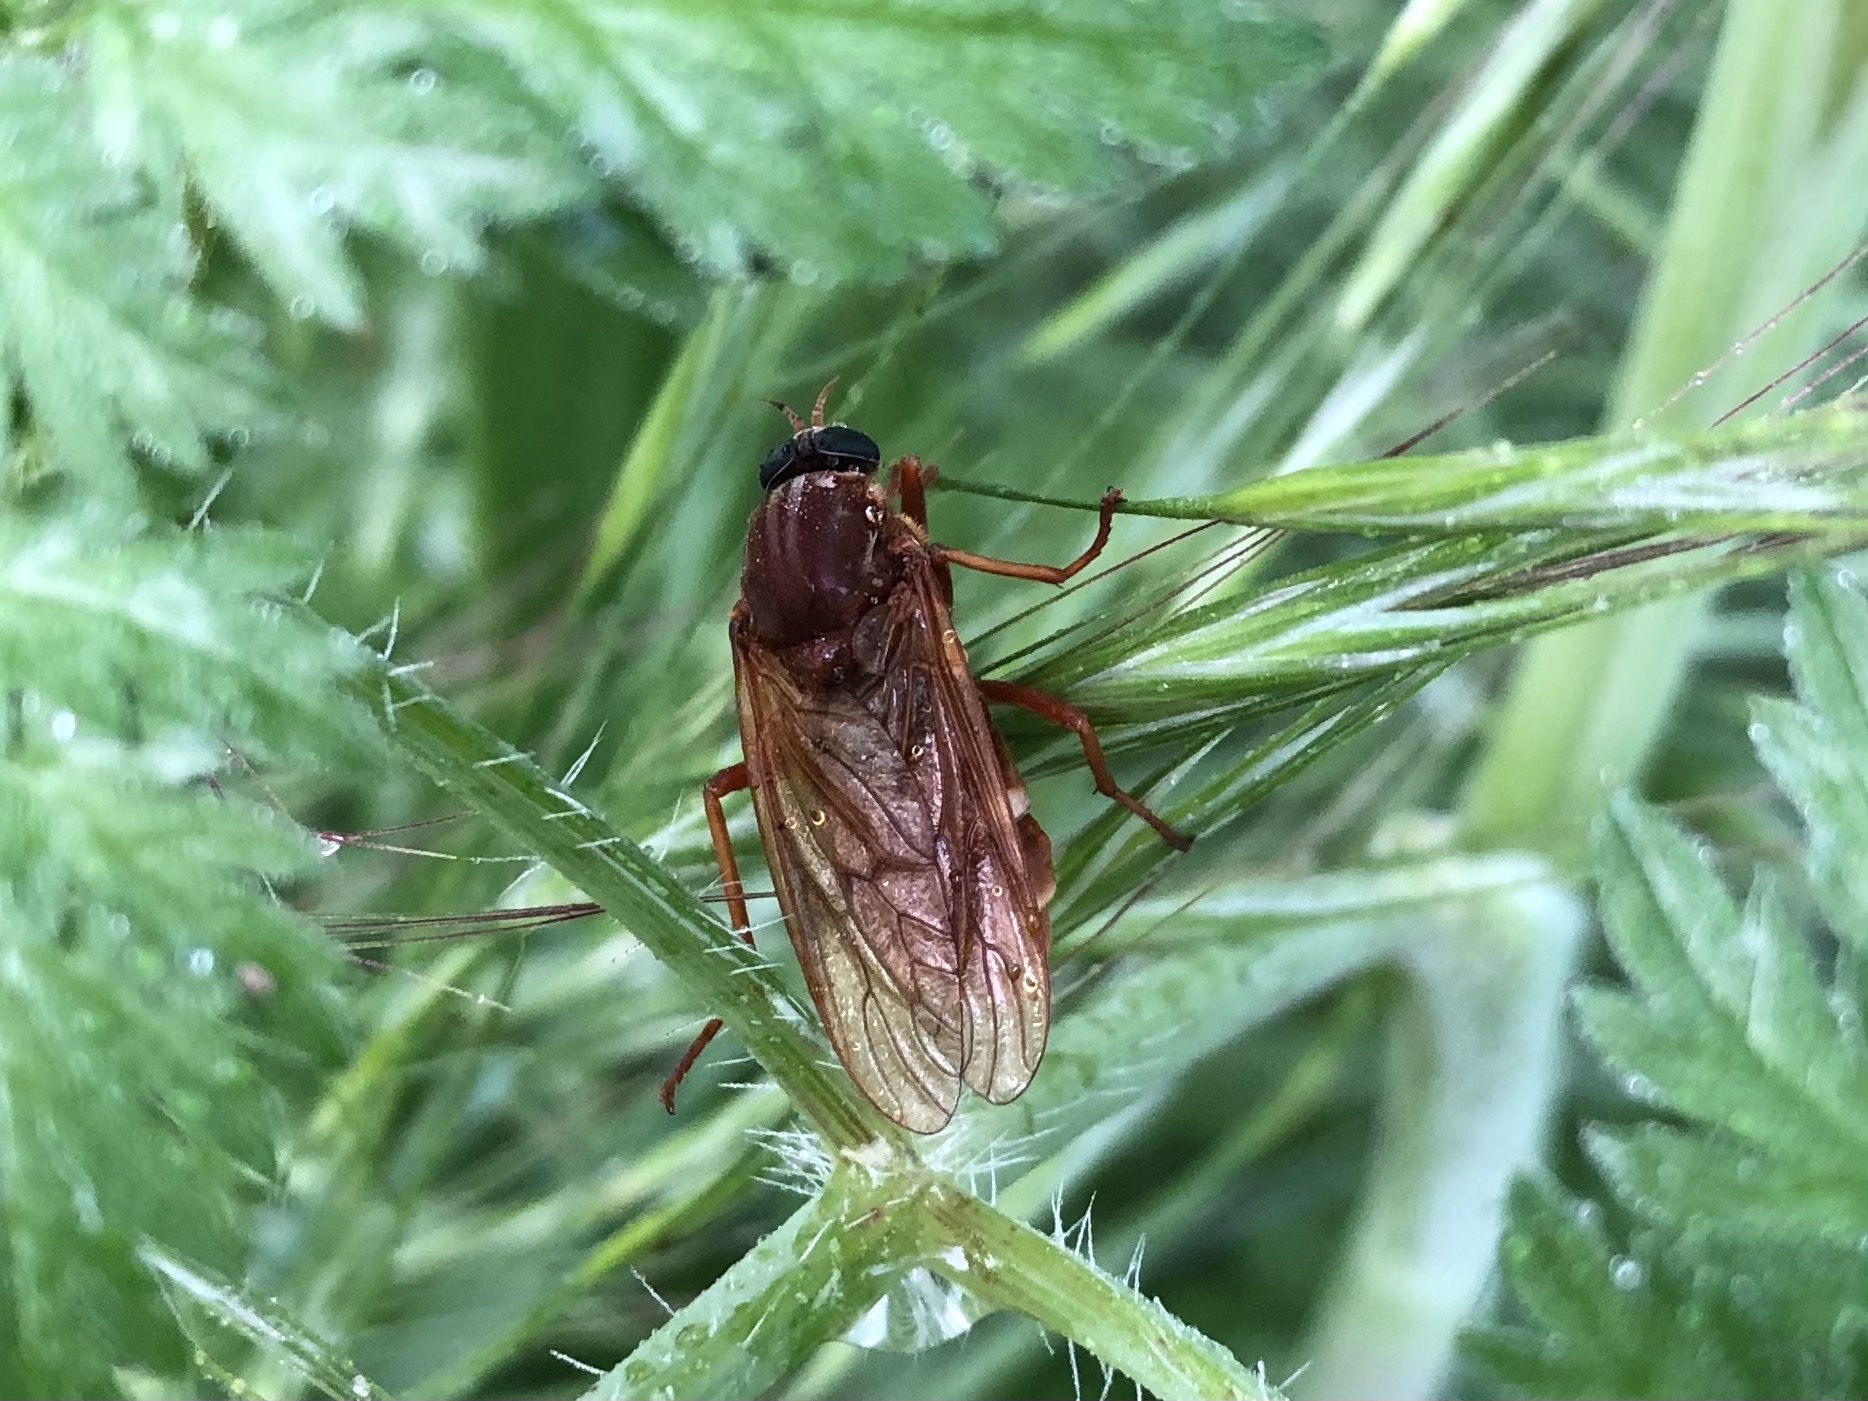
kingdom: Animalia
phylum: Arthropoda
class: Insecta
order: Diptera
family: Xylophagidae
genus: Coenomyia
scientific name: Coenomyia ferruginea
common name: Stink fly
